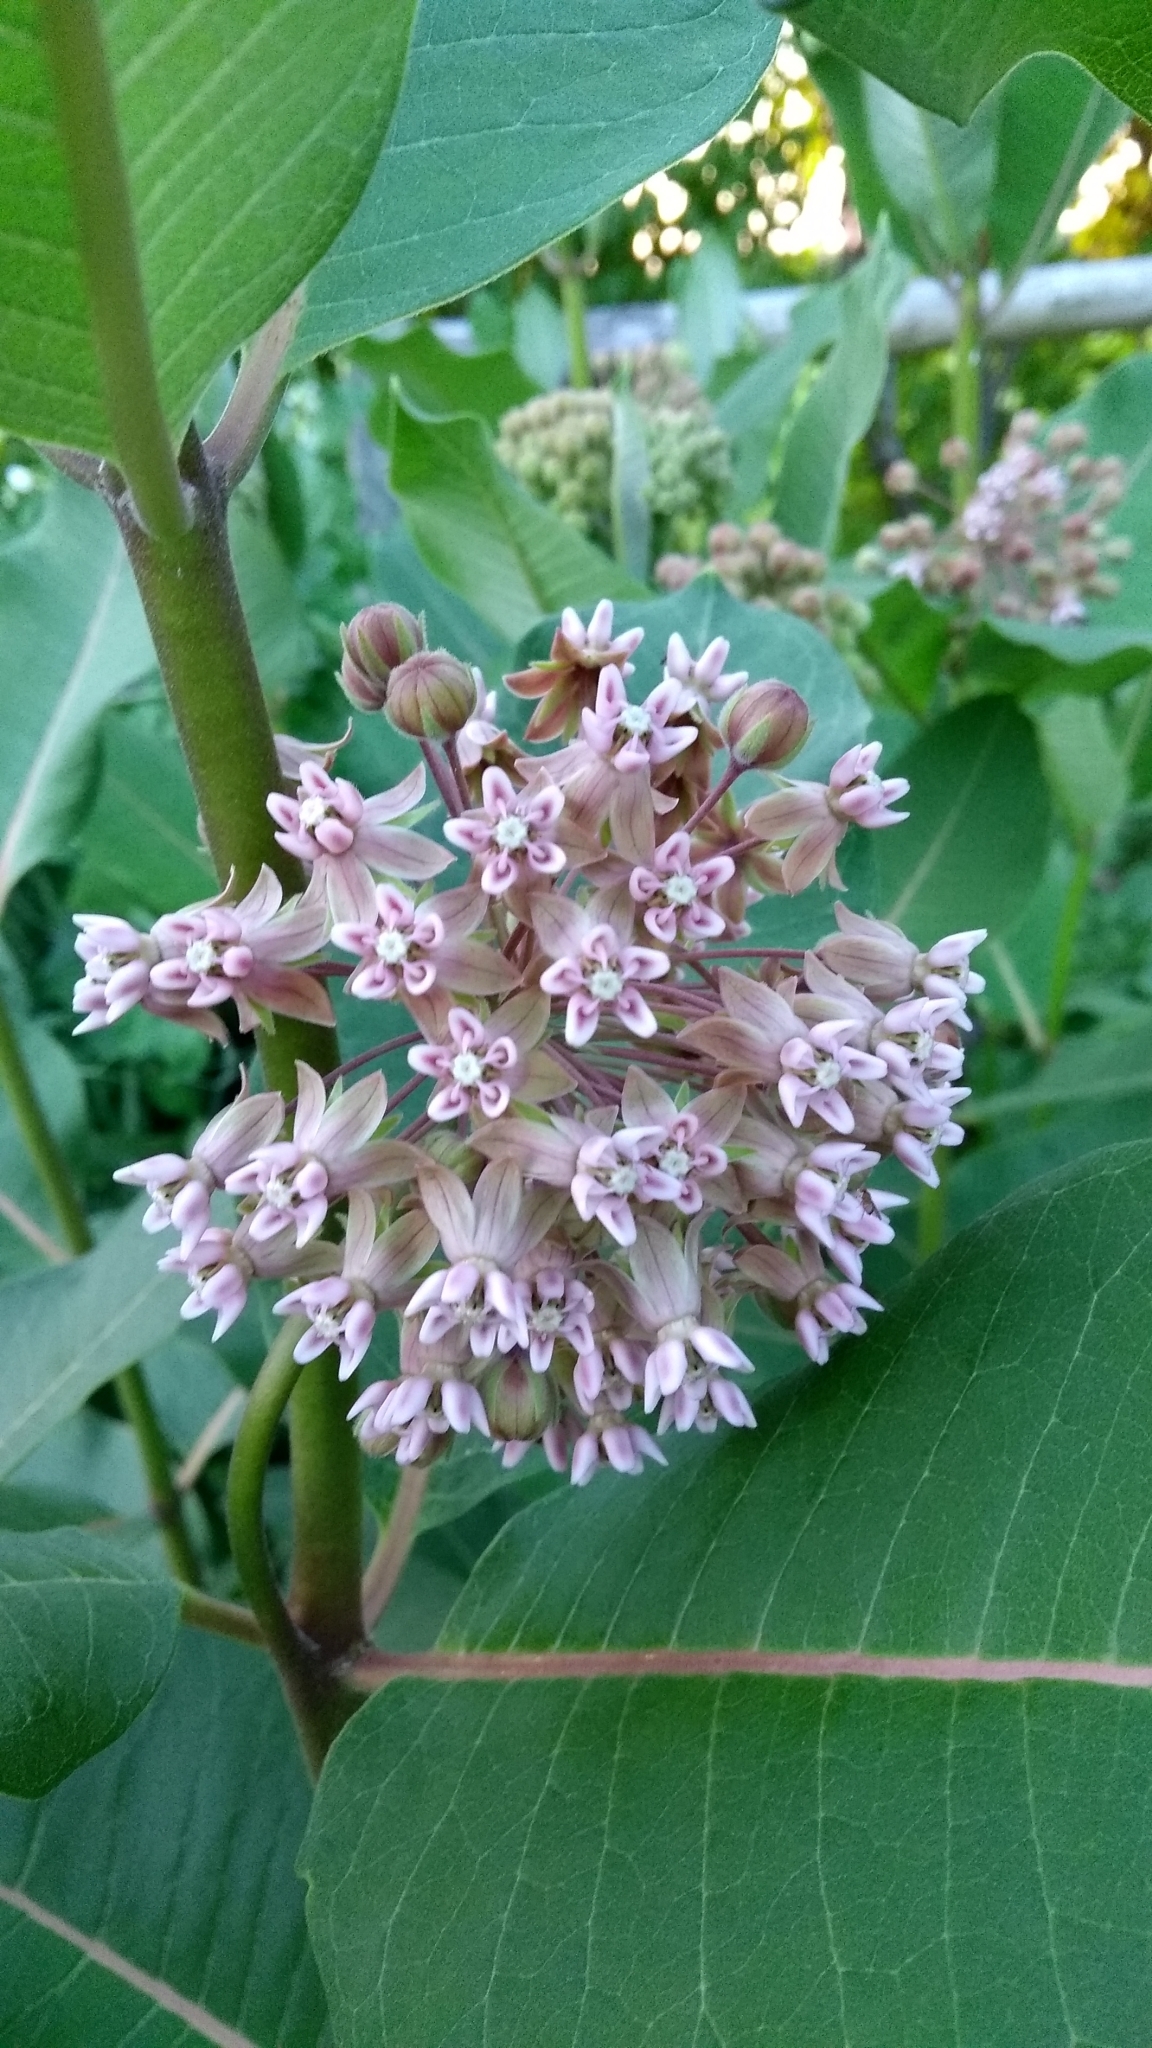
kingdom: Plantae
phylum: Tracheophyta
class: Magnoliopsida
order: Gentianales
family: Apocynaceae
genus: Asclepias
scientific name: Asclepias syriaca
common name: Common milkweed
